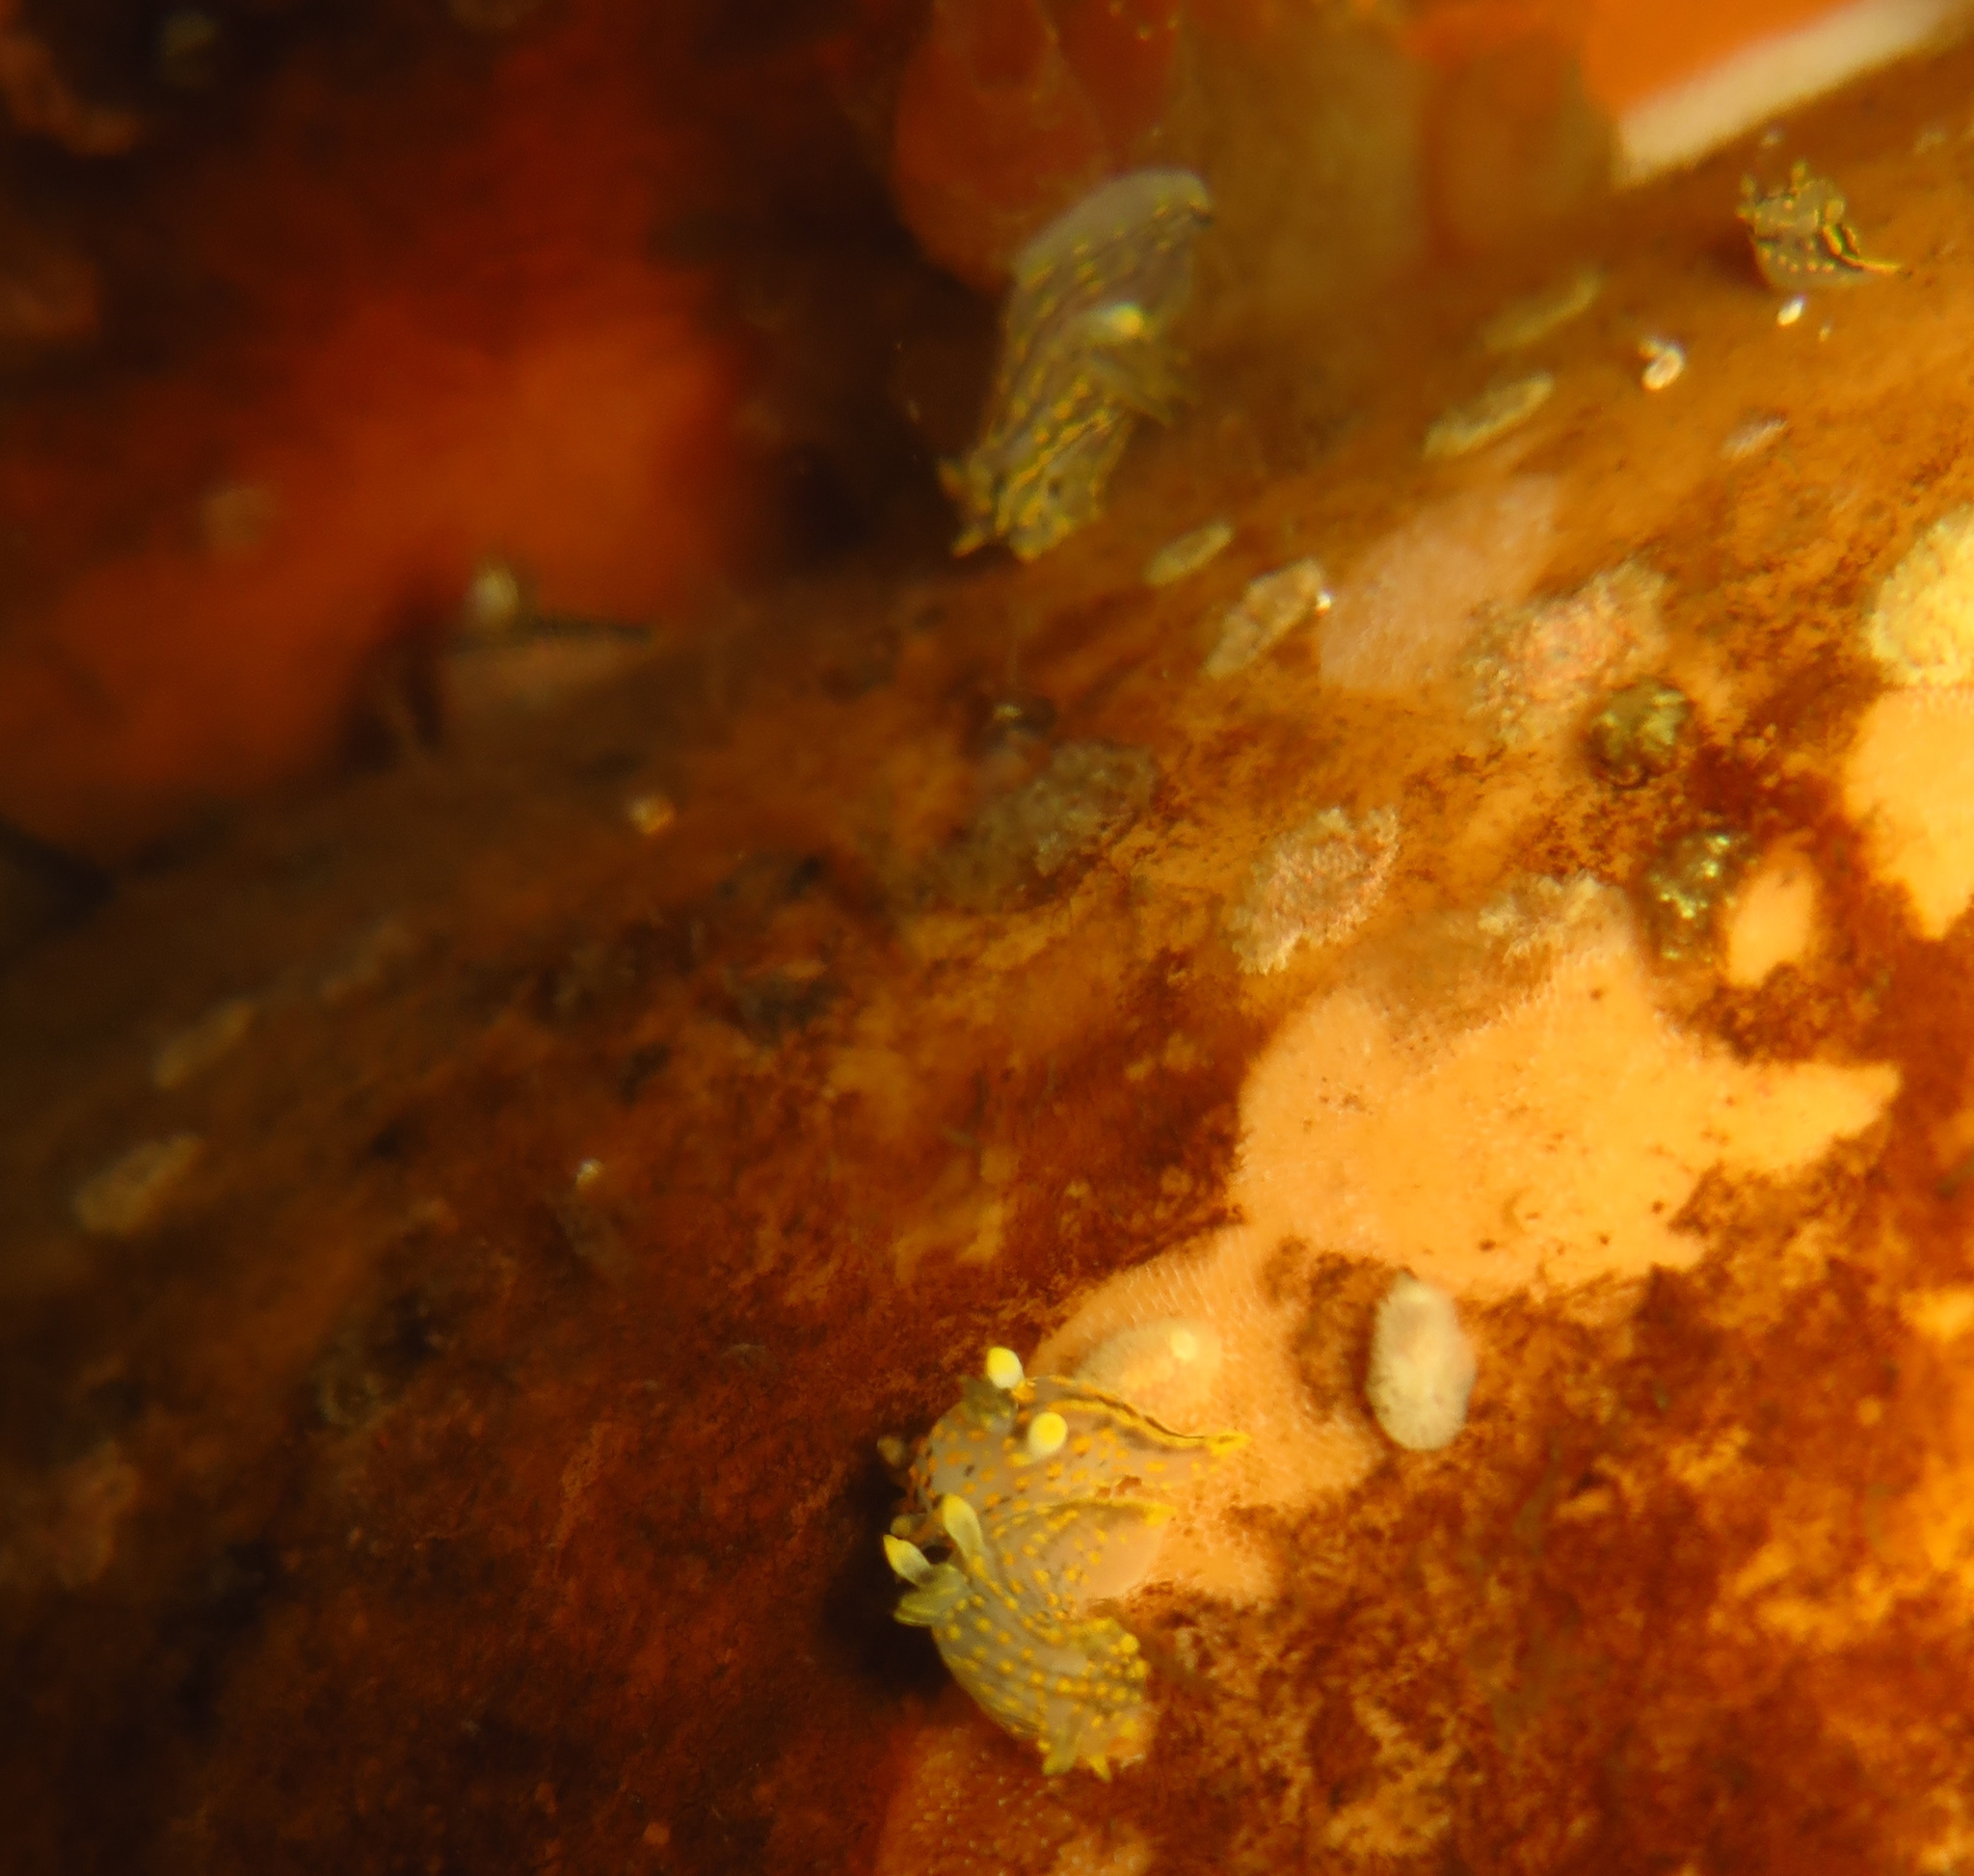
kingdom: Animalia
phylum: Mollusca
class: Gastropoda
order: Nudibranchia
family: Polyceridae
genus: Polycera
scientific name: Polycera quadrilineata
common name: Four-striped polycera
